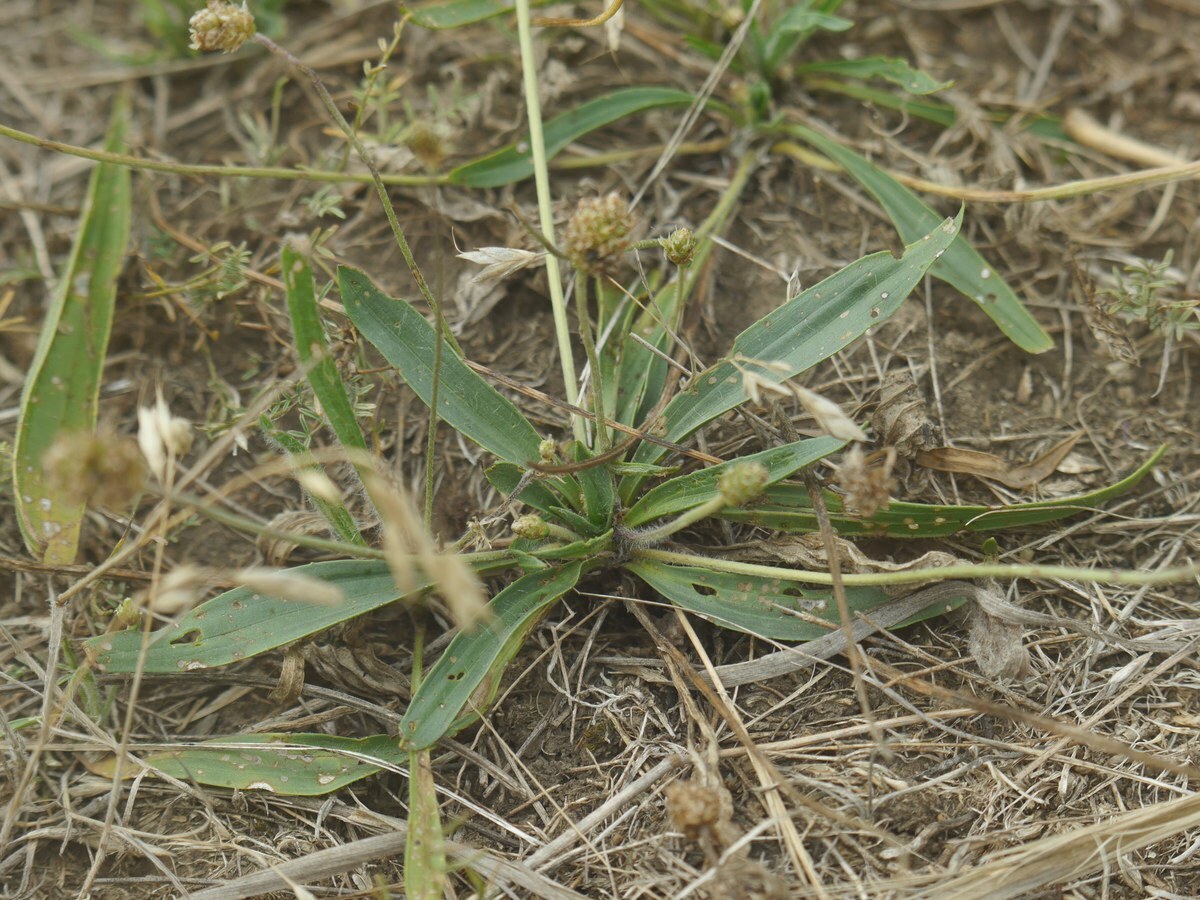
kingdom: Plantae
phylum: Tracheophyta
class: Magnoliopsida
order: Lamiales
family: Plantaginaceae
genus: Plantago
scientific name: Plantago lanceolata
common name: Ribwort plantain
